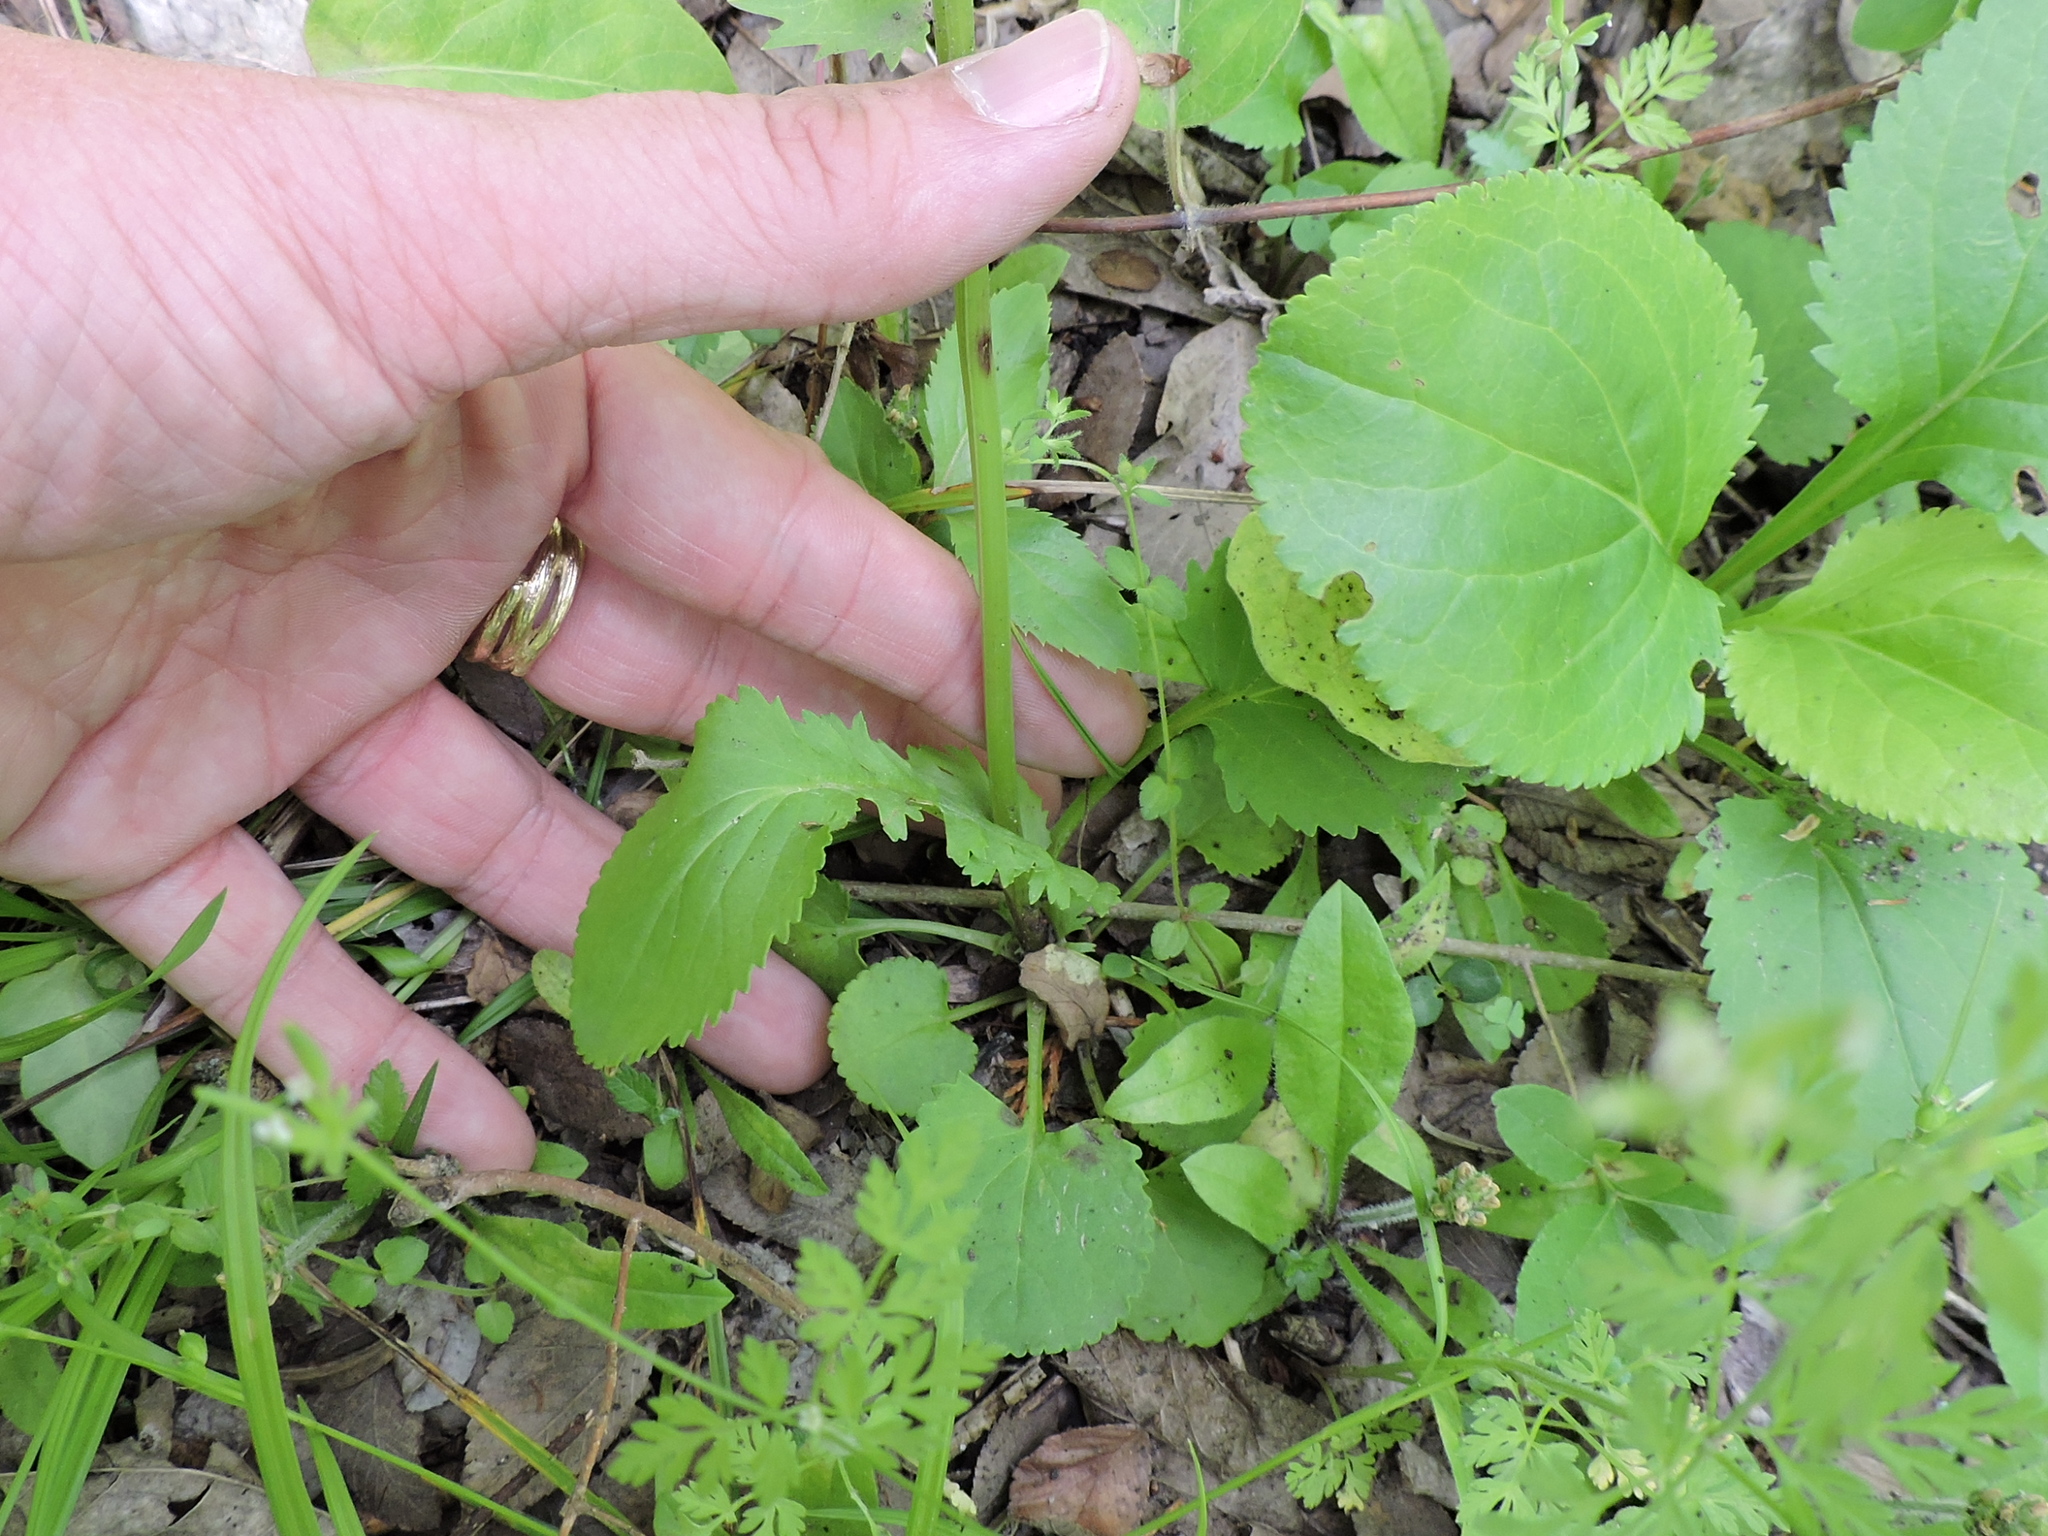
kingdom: Plantae
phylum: Tracheophyta
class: Magnoliopsida
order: Asterales
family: Asteraceae
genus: Packera
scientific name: Packera obovata
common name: Round-leaf ragwort
